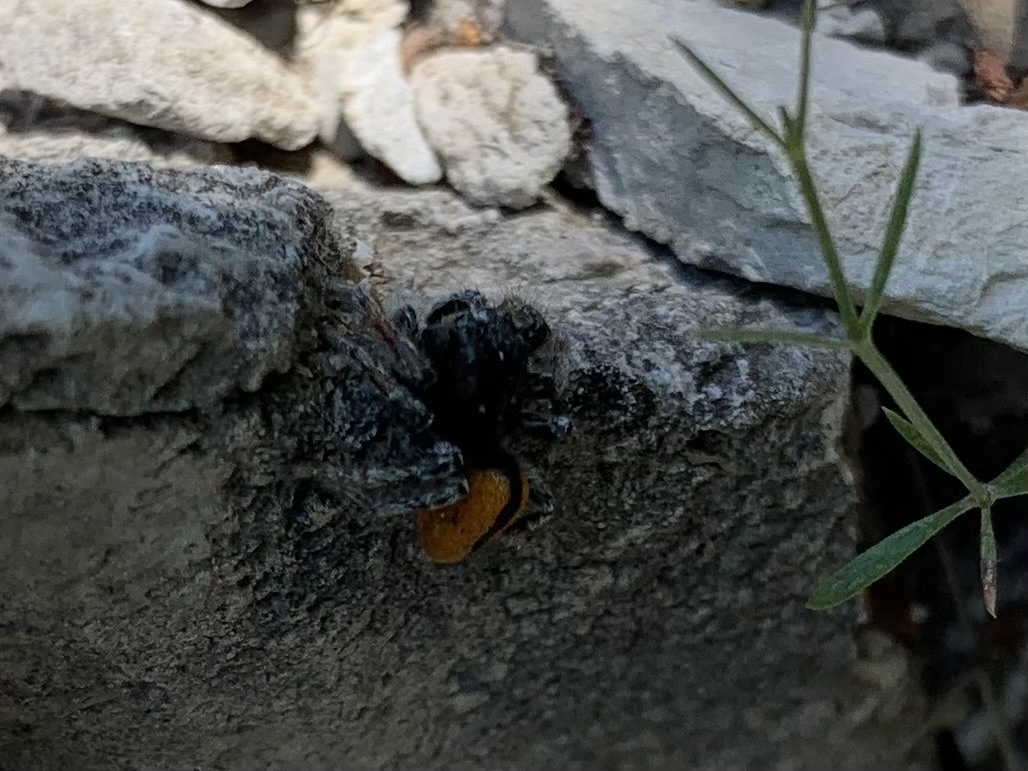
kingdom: Animalia
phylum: Arthropoda
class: Arachnida
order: Araneae
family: Salticidae
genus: Philaeus
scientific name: Philaeus chrysops
